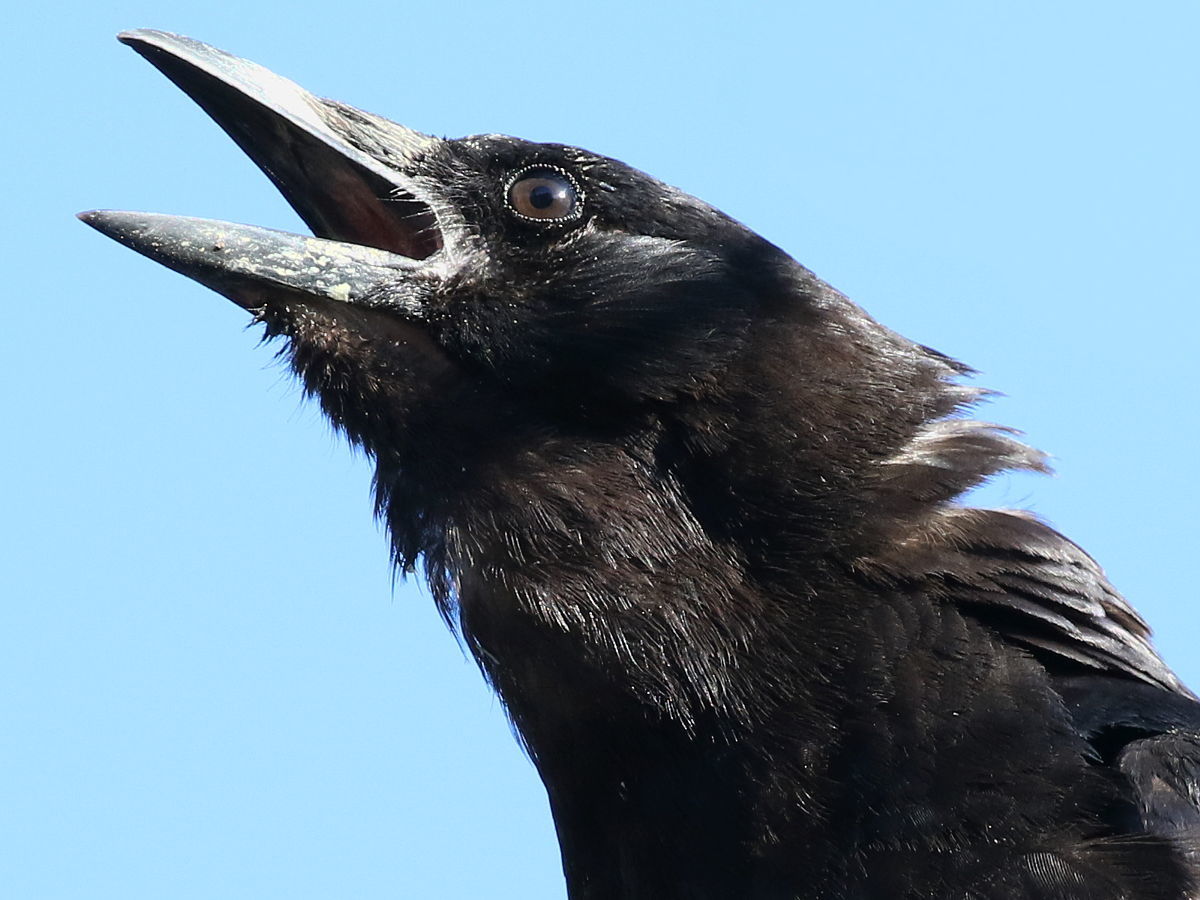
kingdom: Animalia
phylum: Chordata
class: Aves
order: Passeriformes
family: Corvidae
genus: Corvus
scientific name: Corvus brachyrhynchos
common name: American crow
